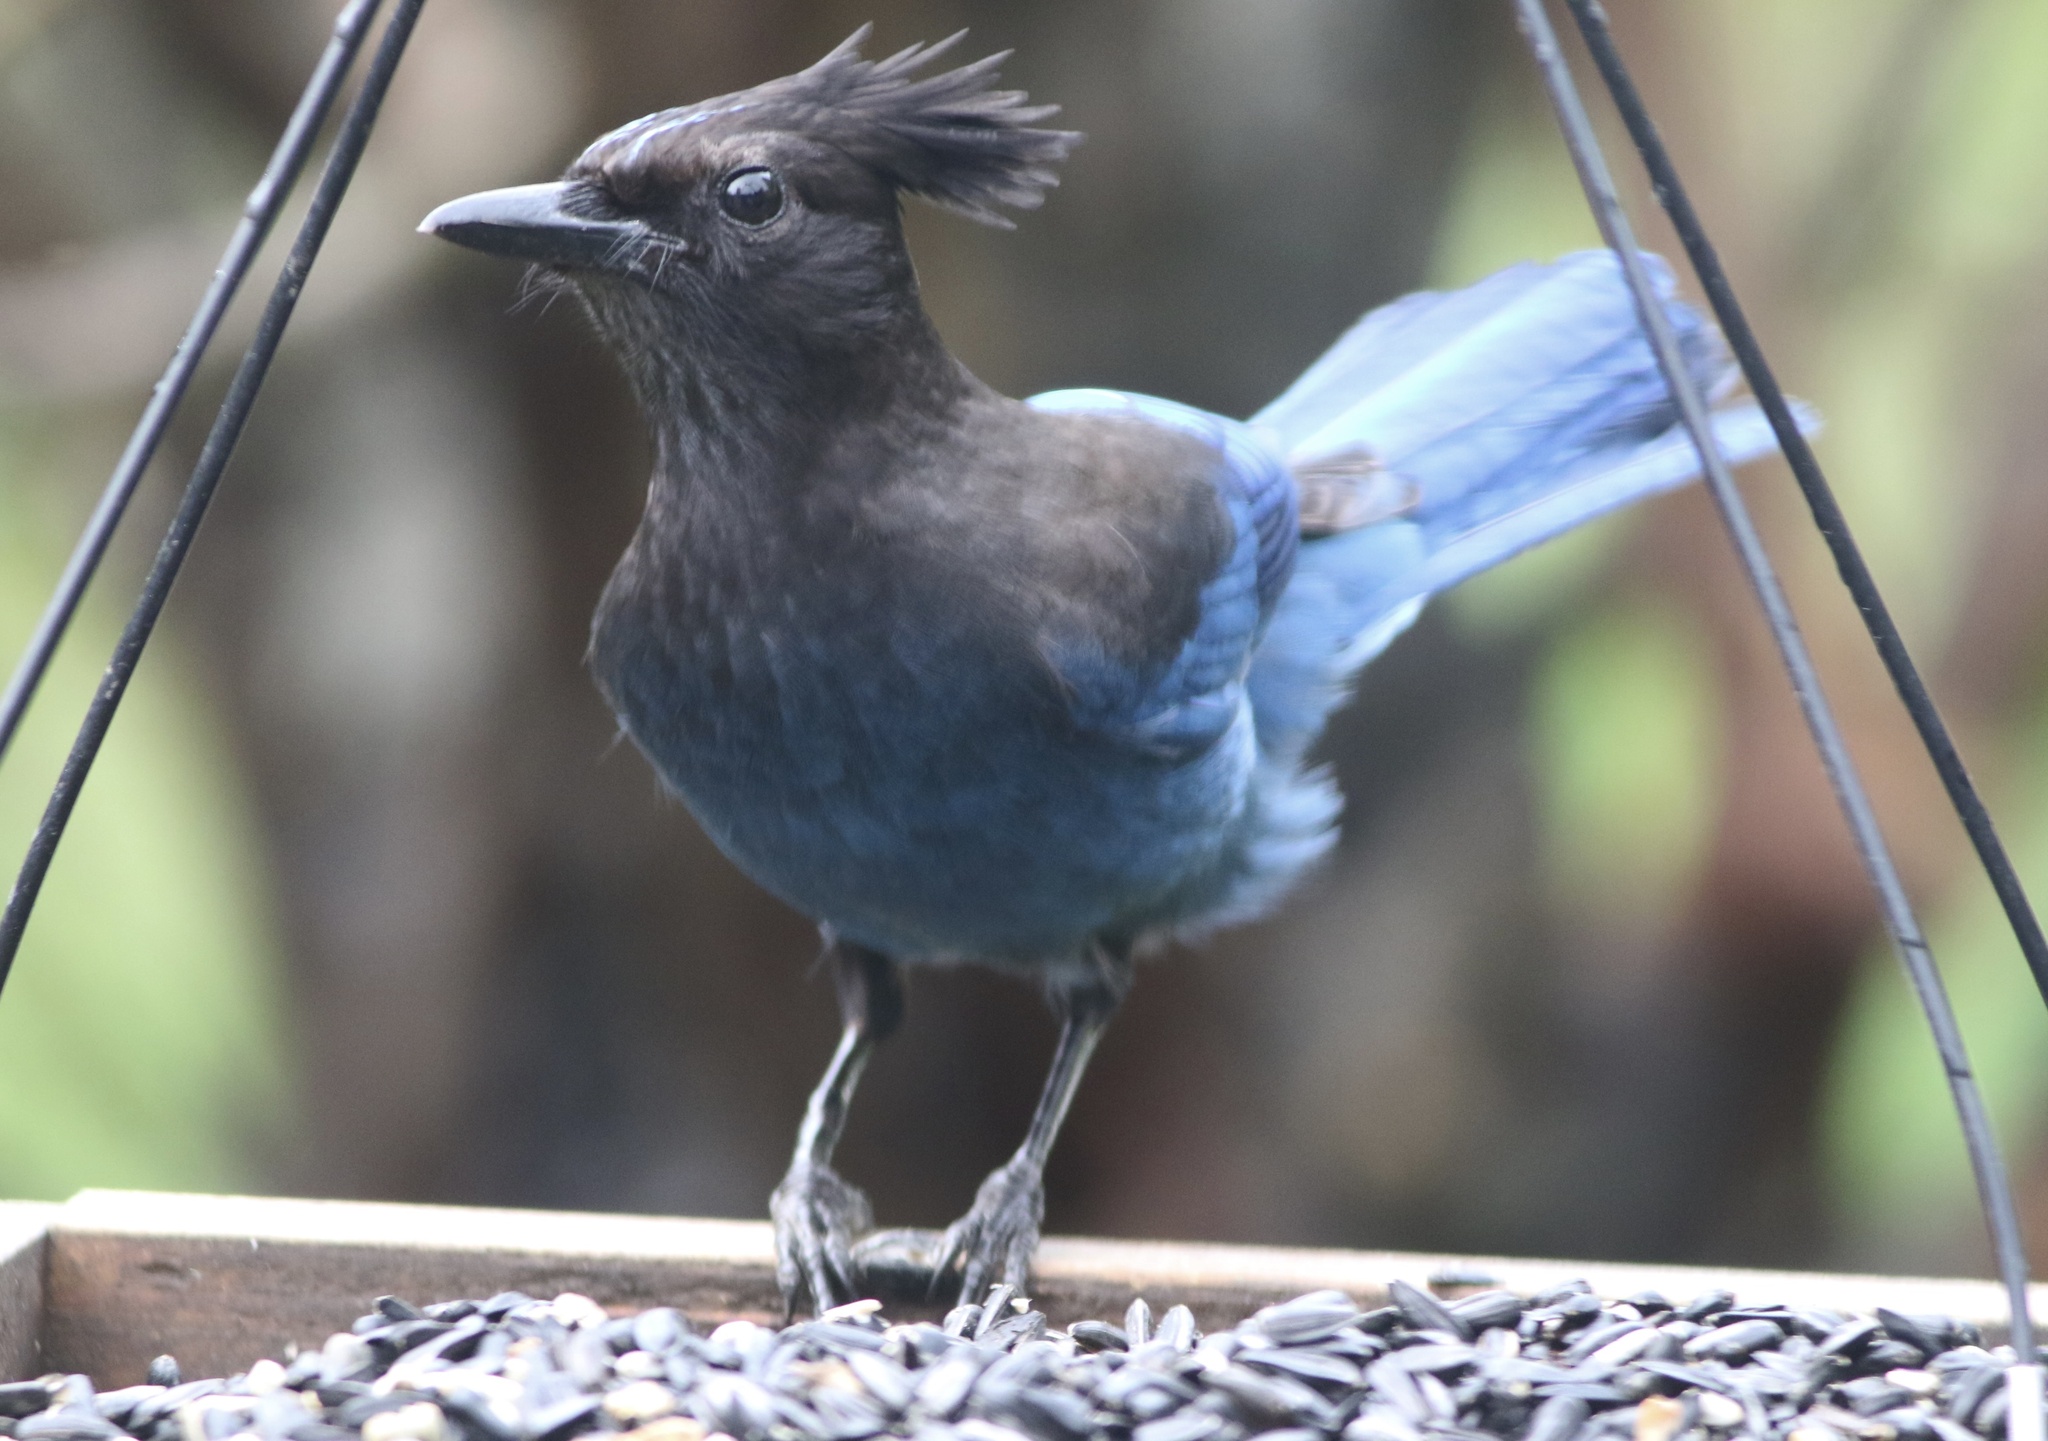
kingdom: Animalia
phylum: Chordata
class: Aves
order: Passeriformes
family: Corvidae
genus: Cyanocitta
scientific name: Cyanocitta stelleri
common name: Steller's jay
